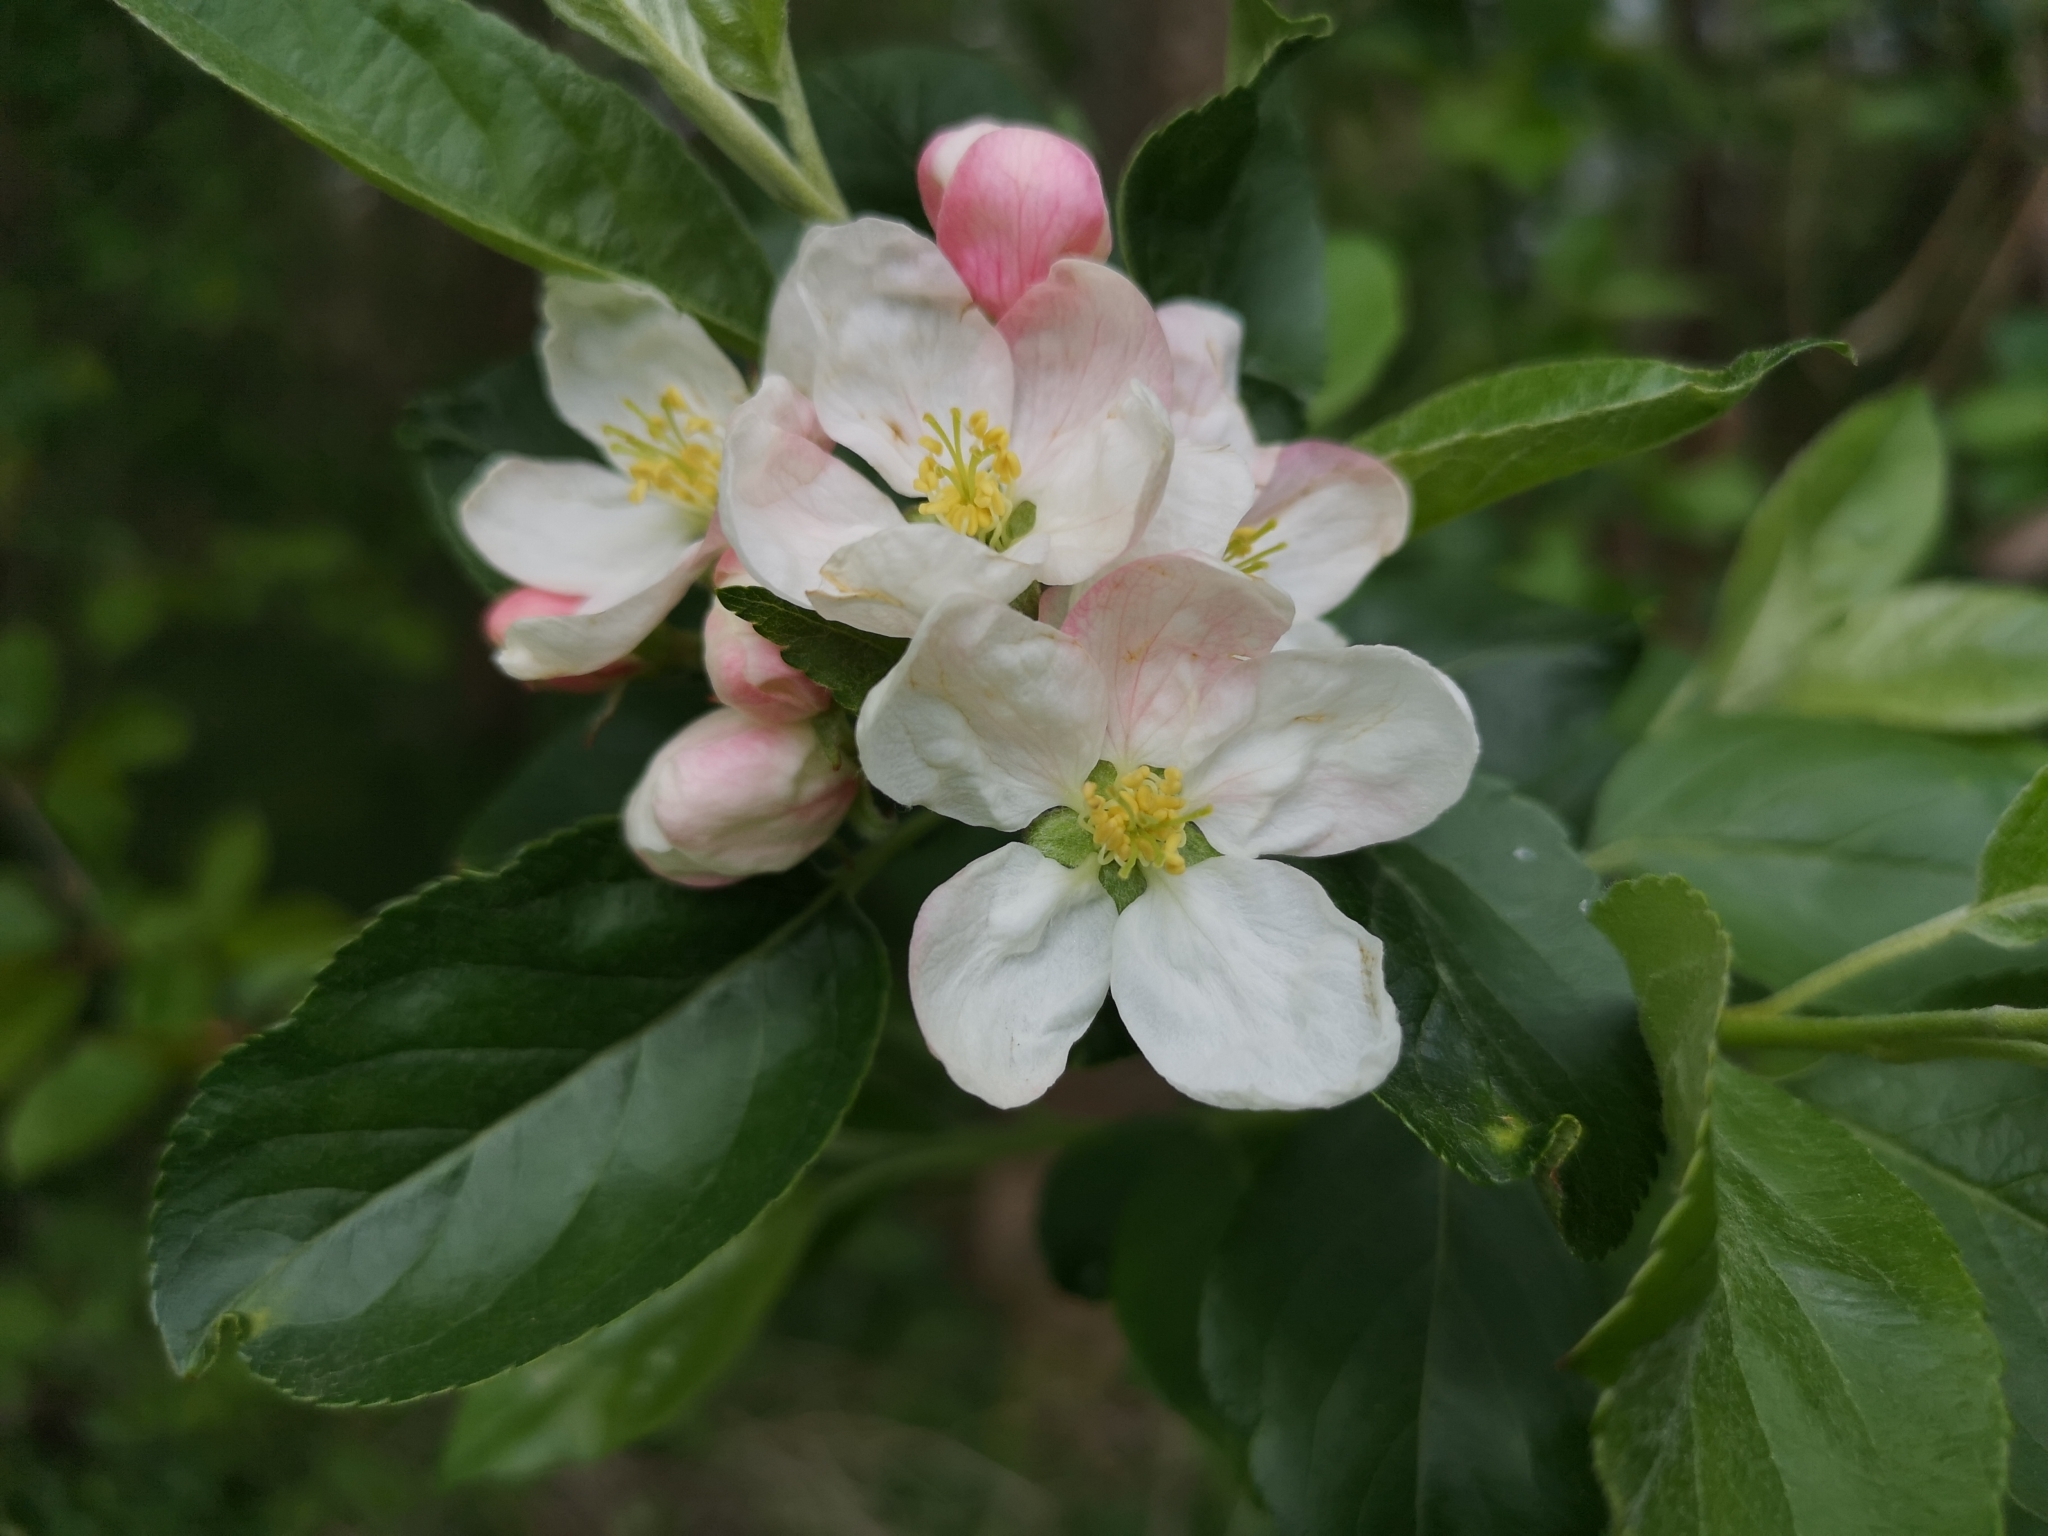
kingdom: Plantae
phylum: Tracheophyta
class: Magnoliopsida
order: Rosales
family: Rosaceae
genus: Malus
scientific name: Malus domestica
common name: Apple
